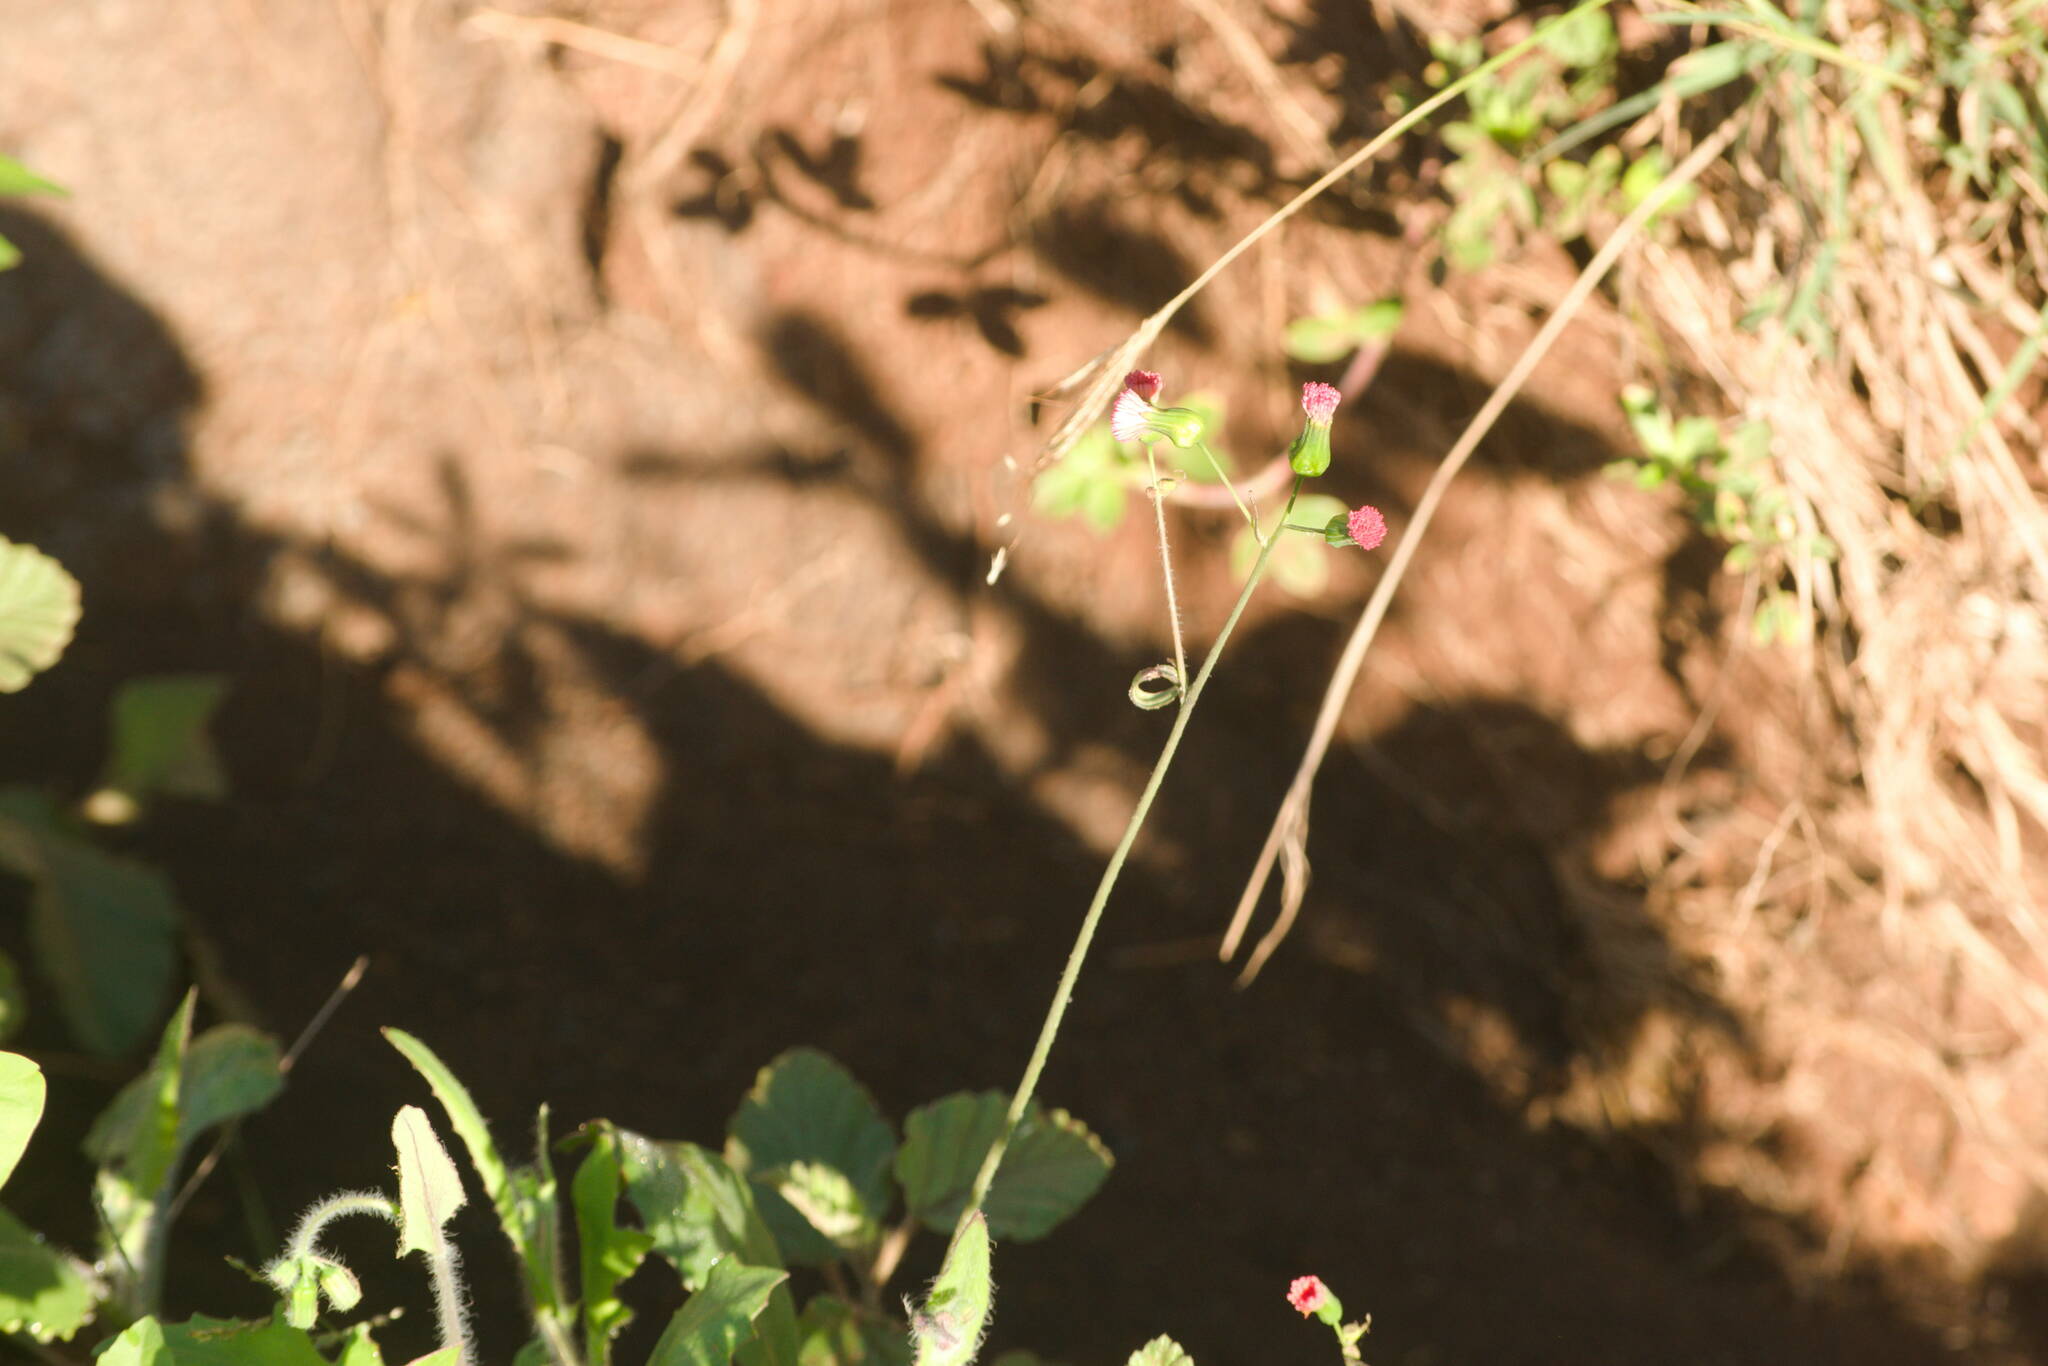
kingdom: Plantae
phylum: Tracheophyta
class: Magnoliopsida
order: Asterales
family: Asteraceae
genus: Emilia
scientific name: Emilia fosbergii
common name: Florida tasselflower
